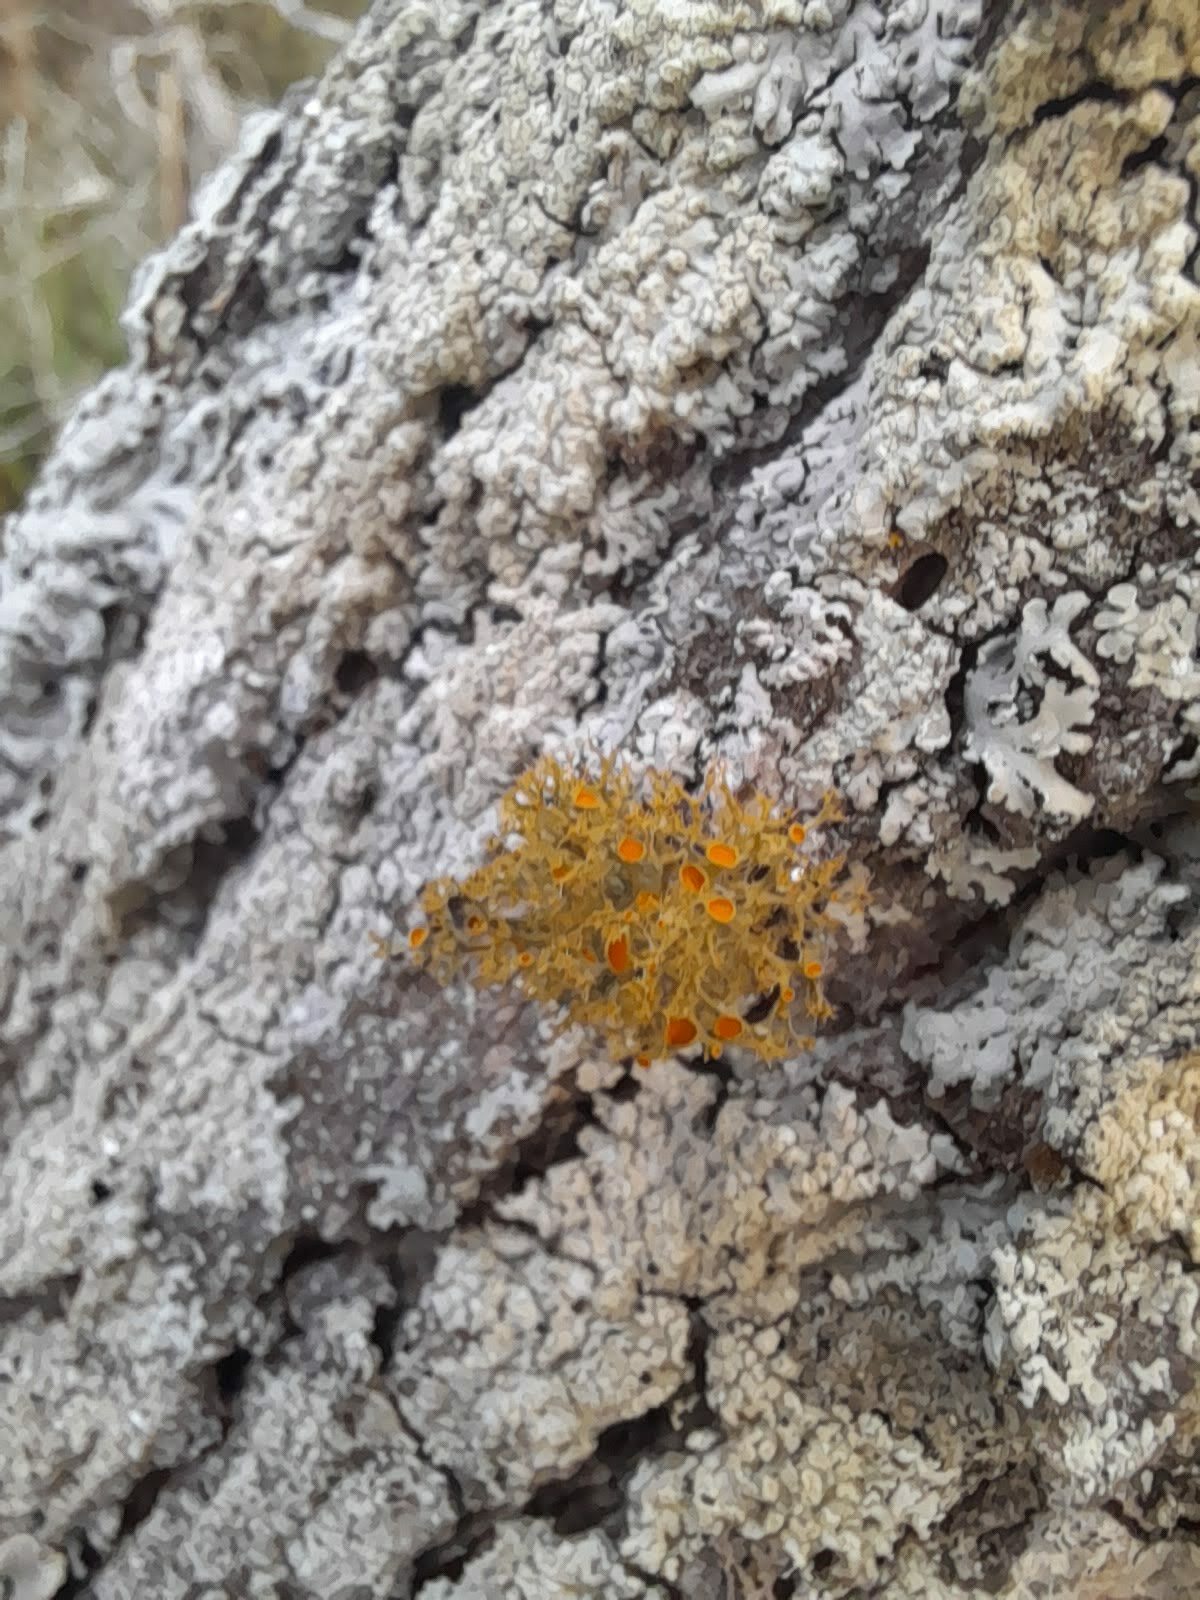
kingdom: Fungi
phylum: Ascomycota
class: Lecanoromycetes
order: Teloschistales
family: Teloschistaceae
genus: Teloschistes
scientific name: Teloschistes exilis
